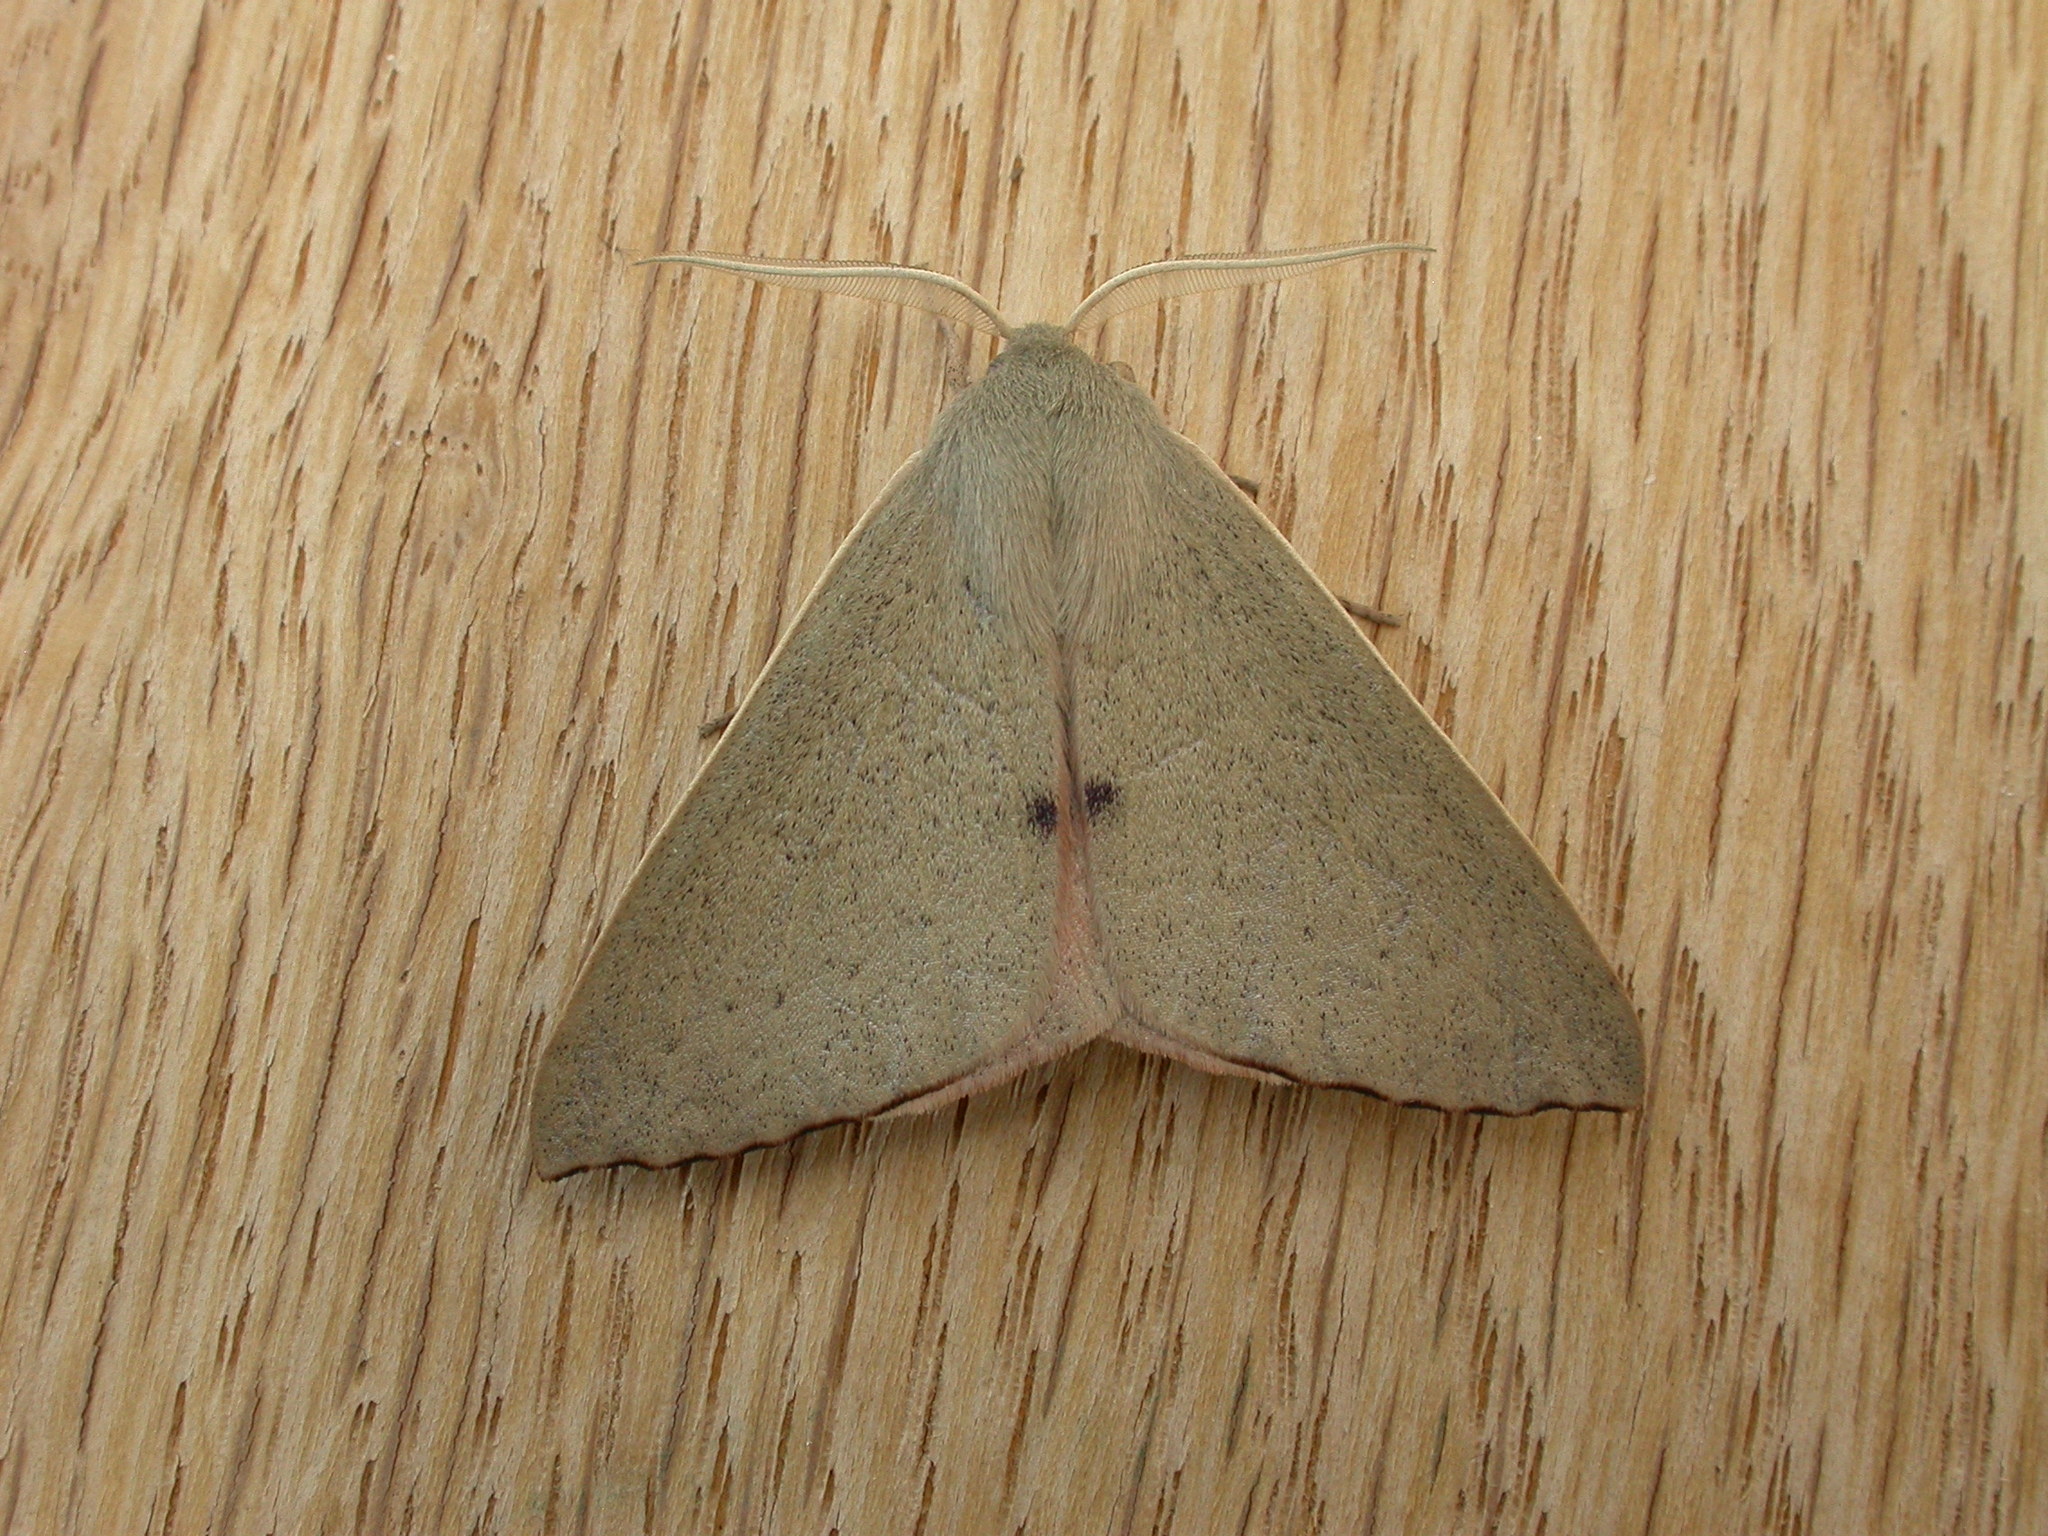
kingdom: Animalia
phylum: Arthropoda
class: Insecta
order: Lepidoptera
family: Geometridae
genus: Arhodia
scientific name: Arhodia lasiocamparia
